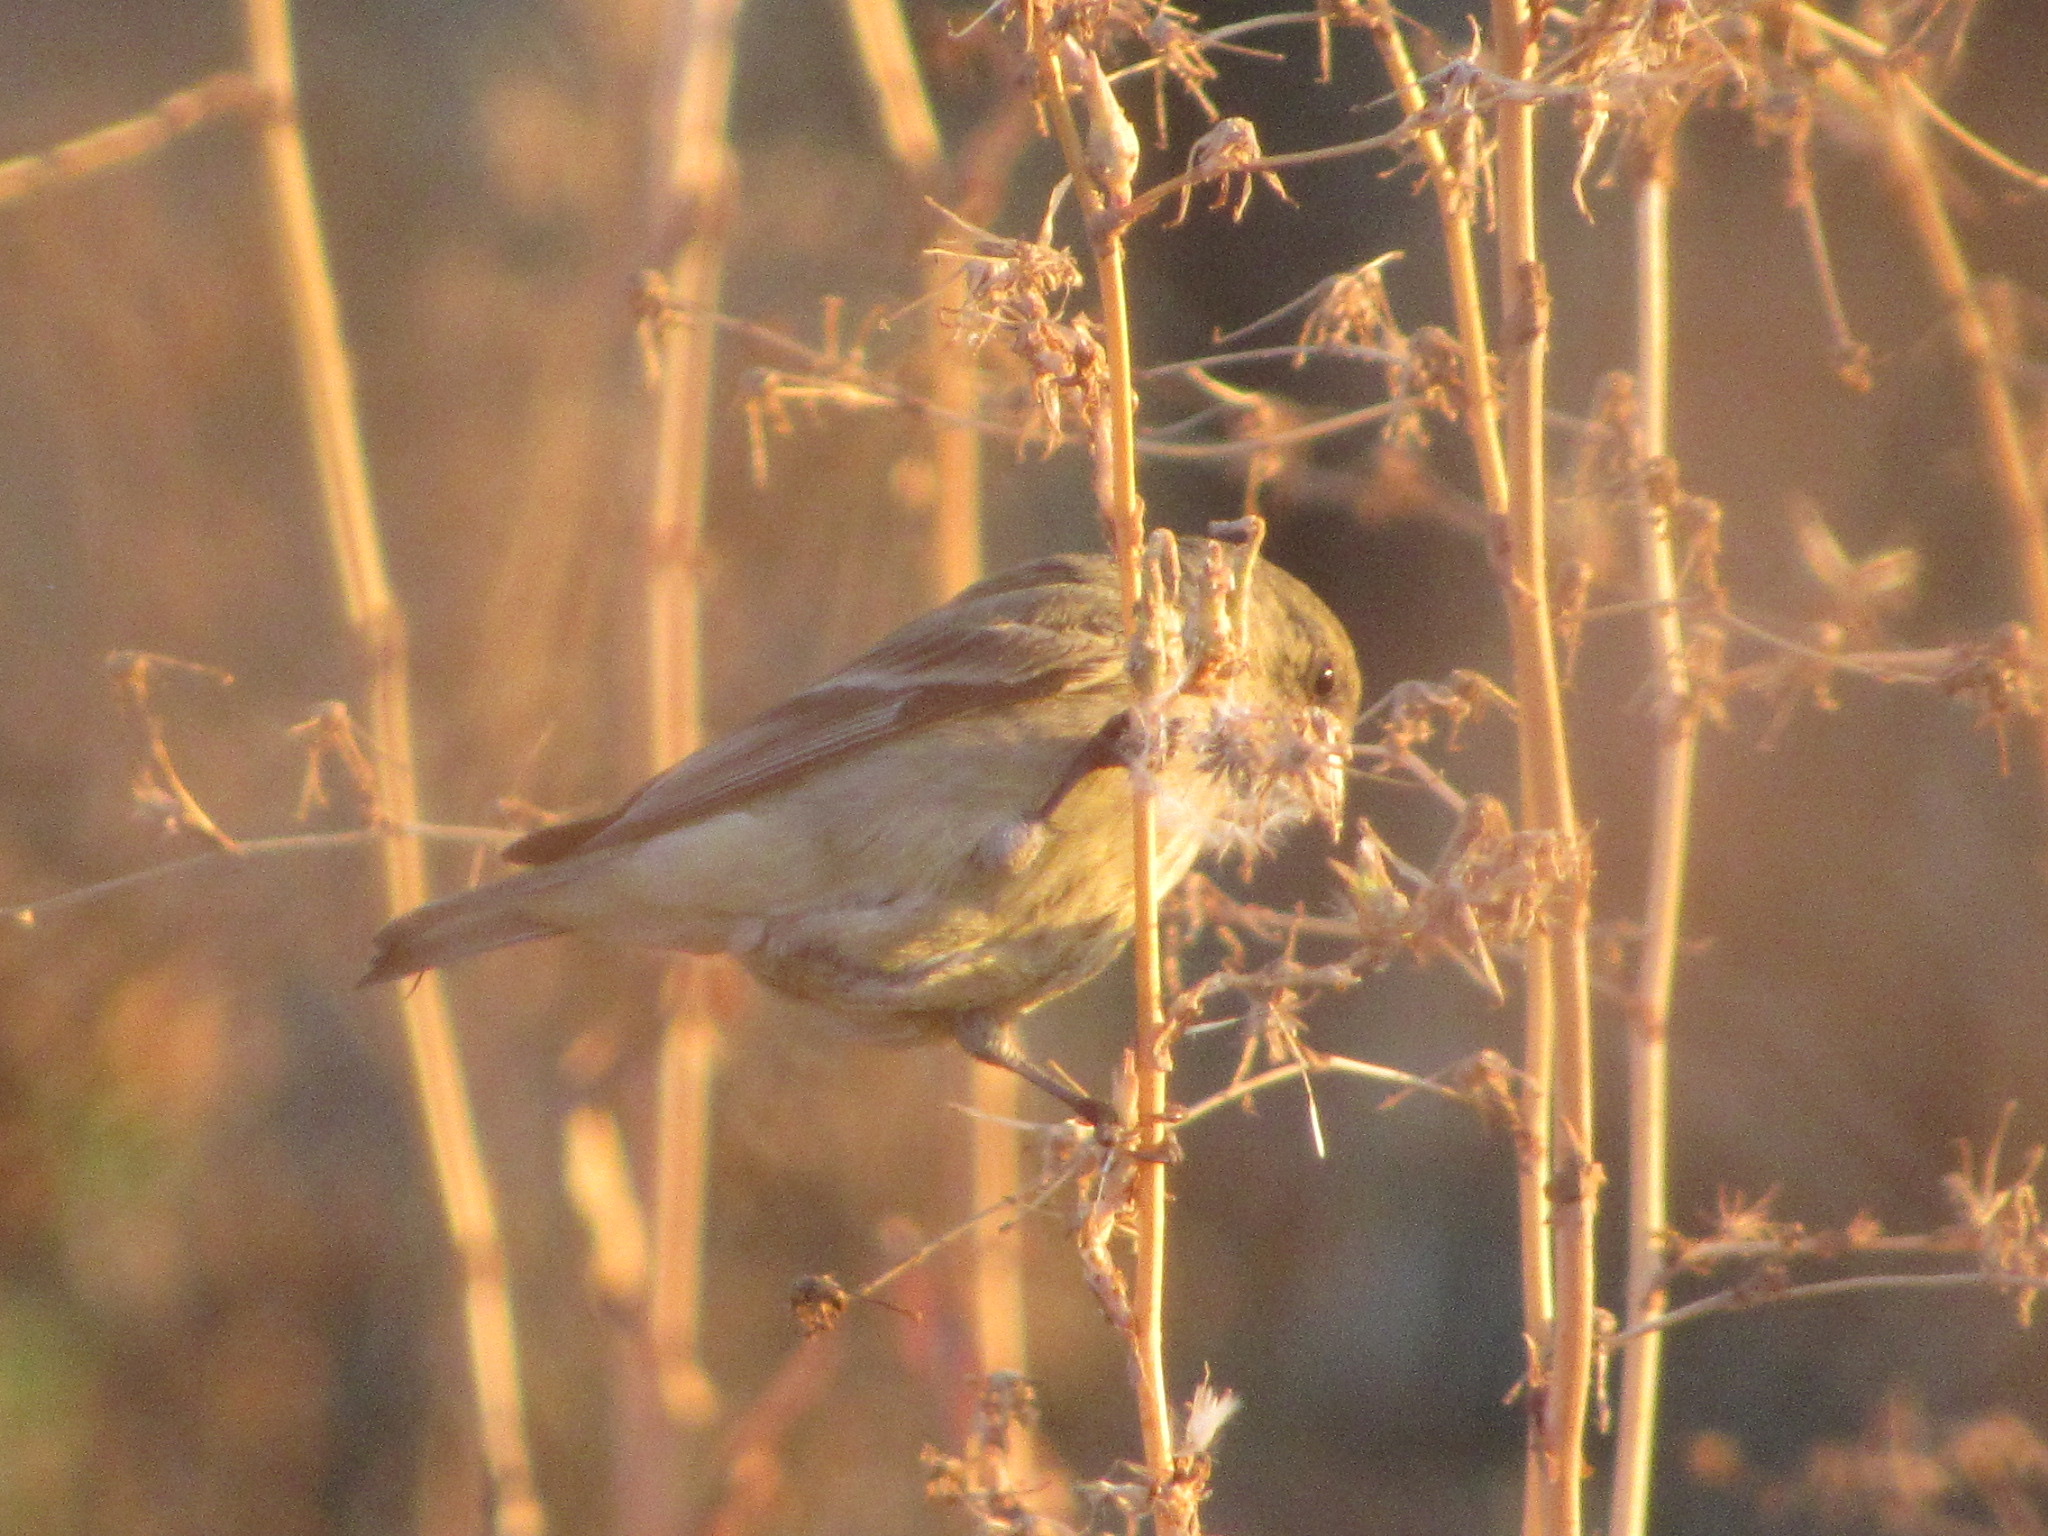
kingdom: Animalia
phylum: Chordata
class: Aves
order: Passeriformes
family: Fringillidae
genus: Spinus
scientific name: Spinus psaltria
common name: Lesser goldfinch
